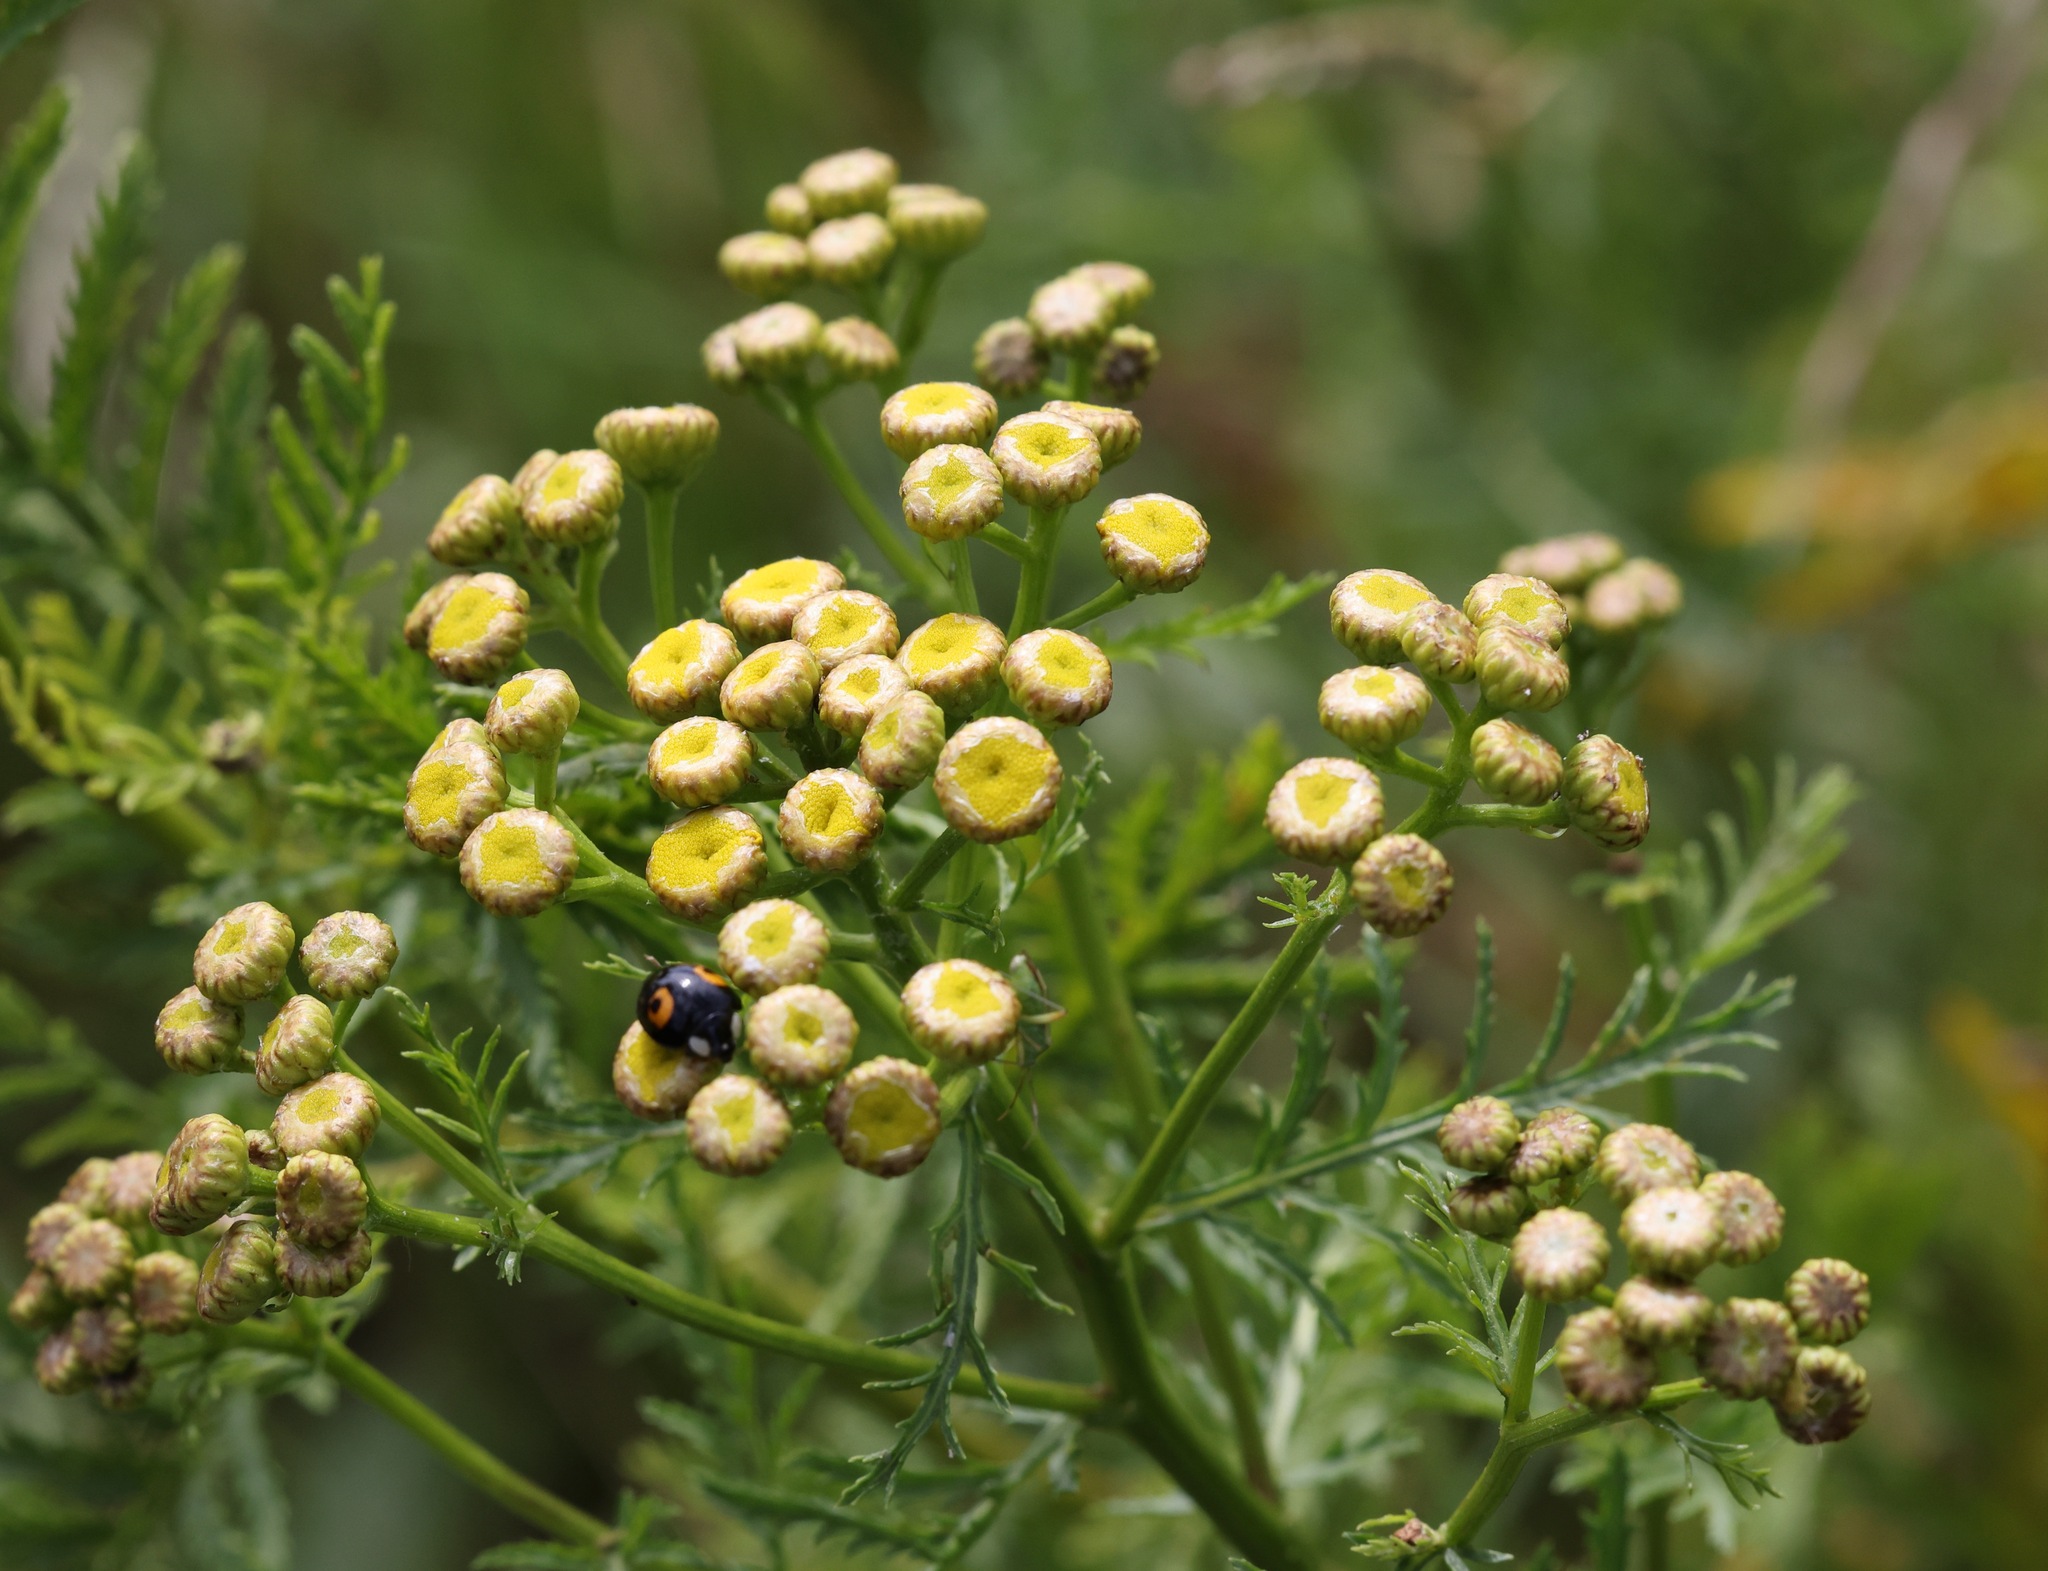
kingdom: Plantae
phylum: Tracheophyta
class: Magnoliopsida
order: Asterales
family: Asteraceae
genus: Tanacetum
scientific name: Tanacetum vulgare
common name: Common tansy
